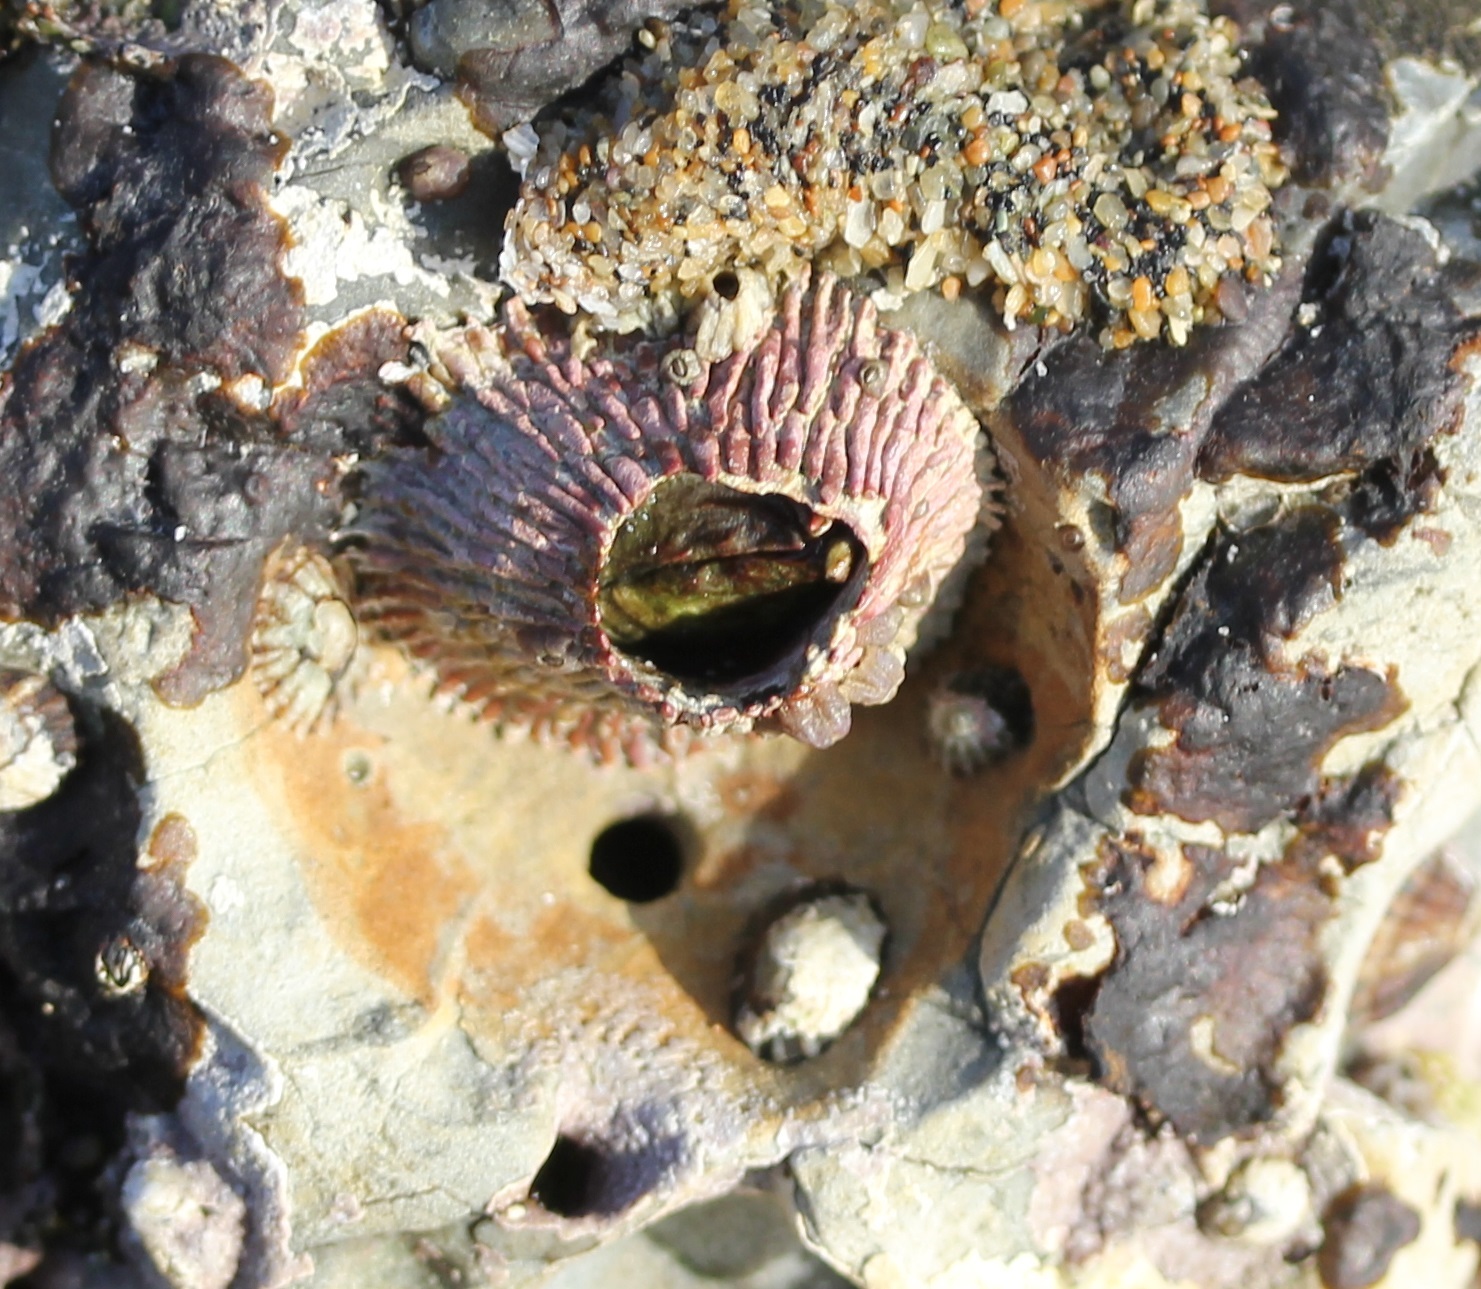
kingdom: Animalia
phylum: Arthropoda
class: Maxillopoda
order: Sessilia
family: Tetraclitidae
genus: Tetraclita
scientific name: Tetraclita rubescens
